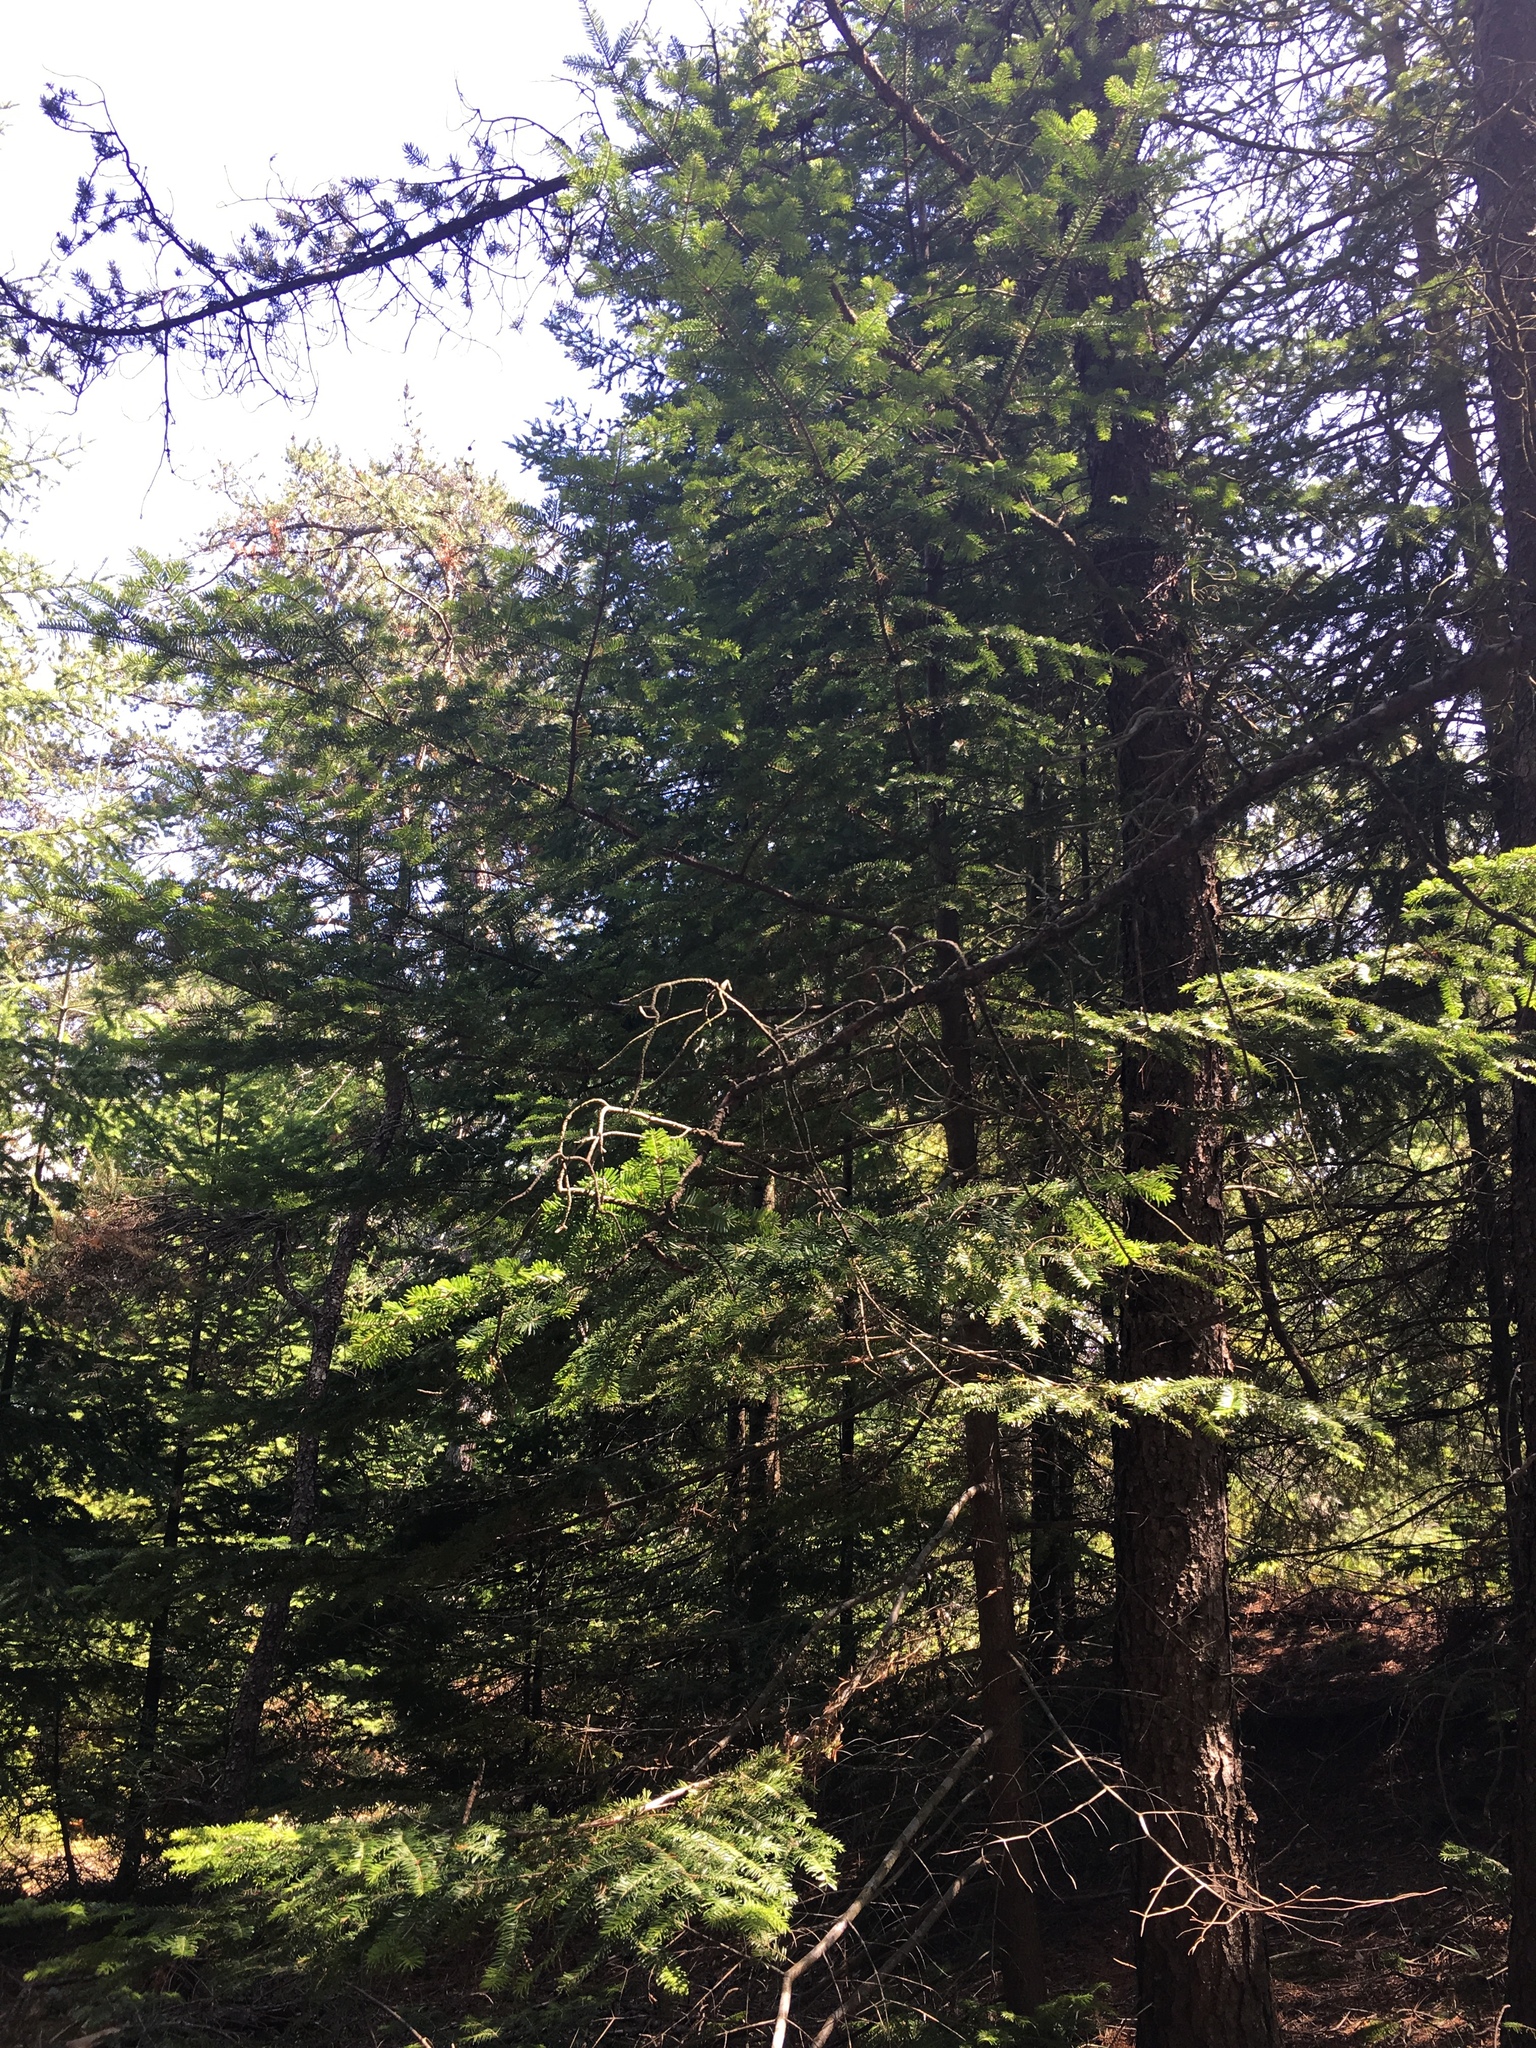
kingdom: Plantae
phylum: Tracheophyta
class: Pinopsida
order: Pinales
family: Pinaceae
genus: Abies
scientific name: Abies balsamea
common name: Balsam fir
